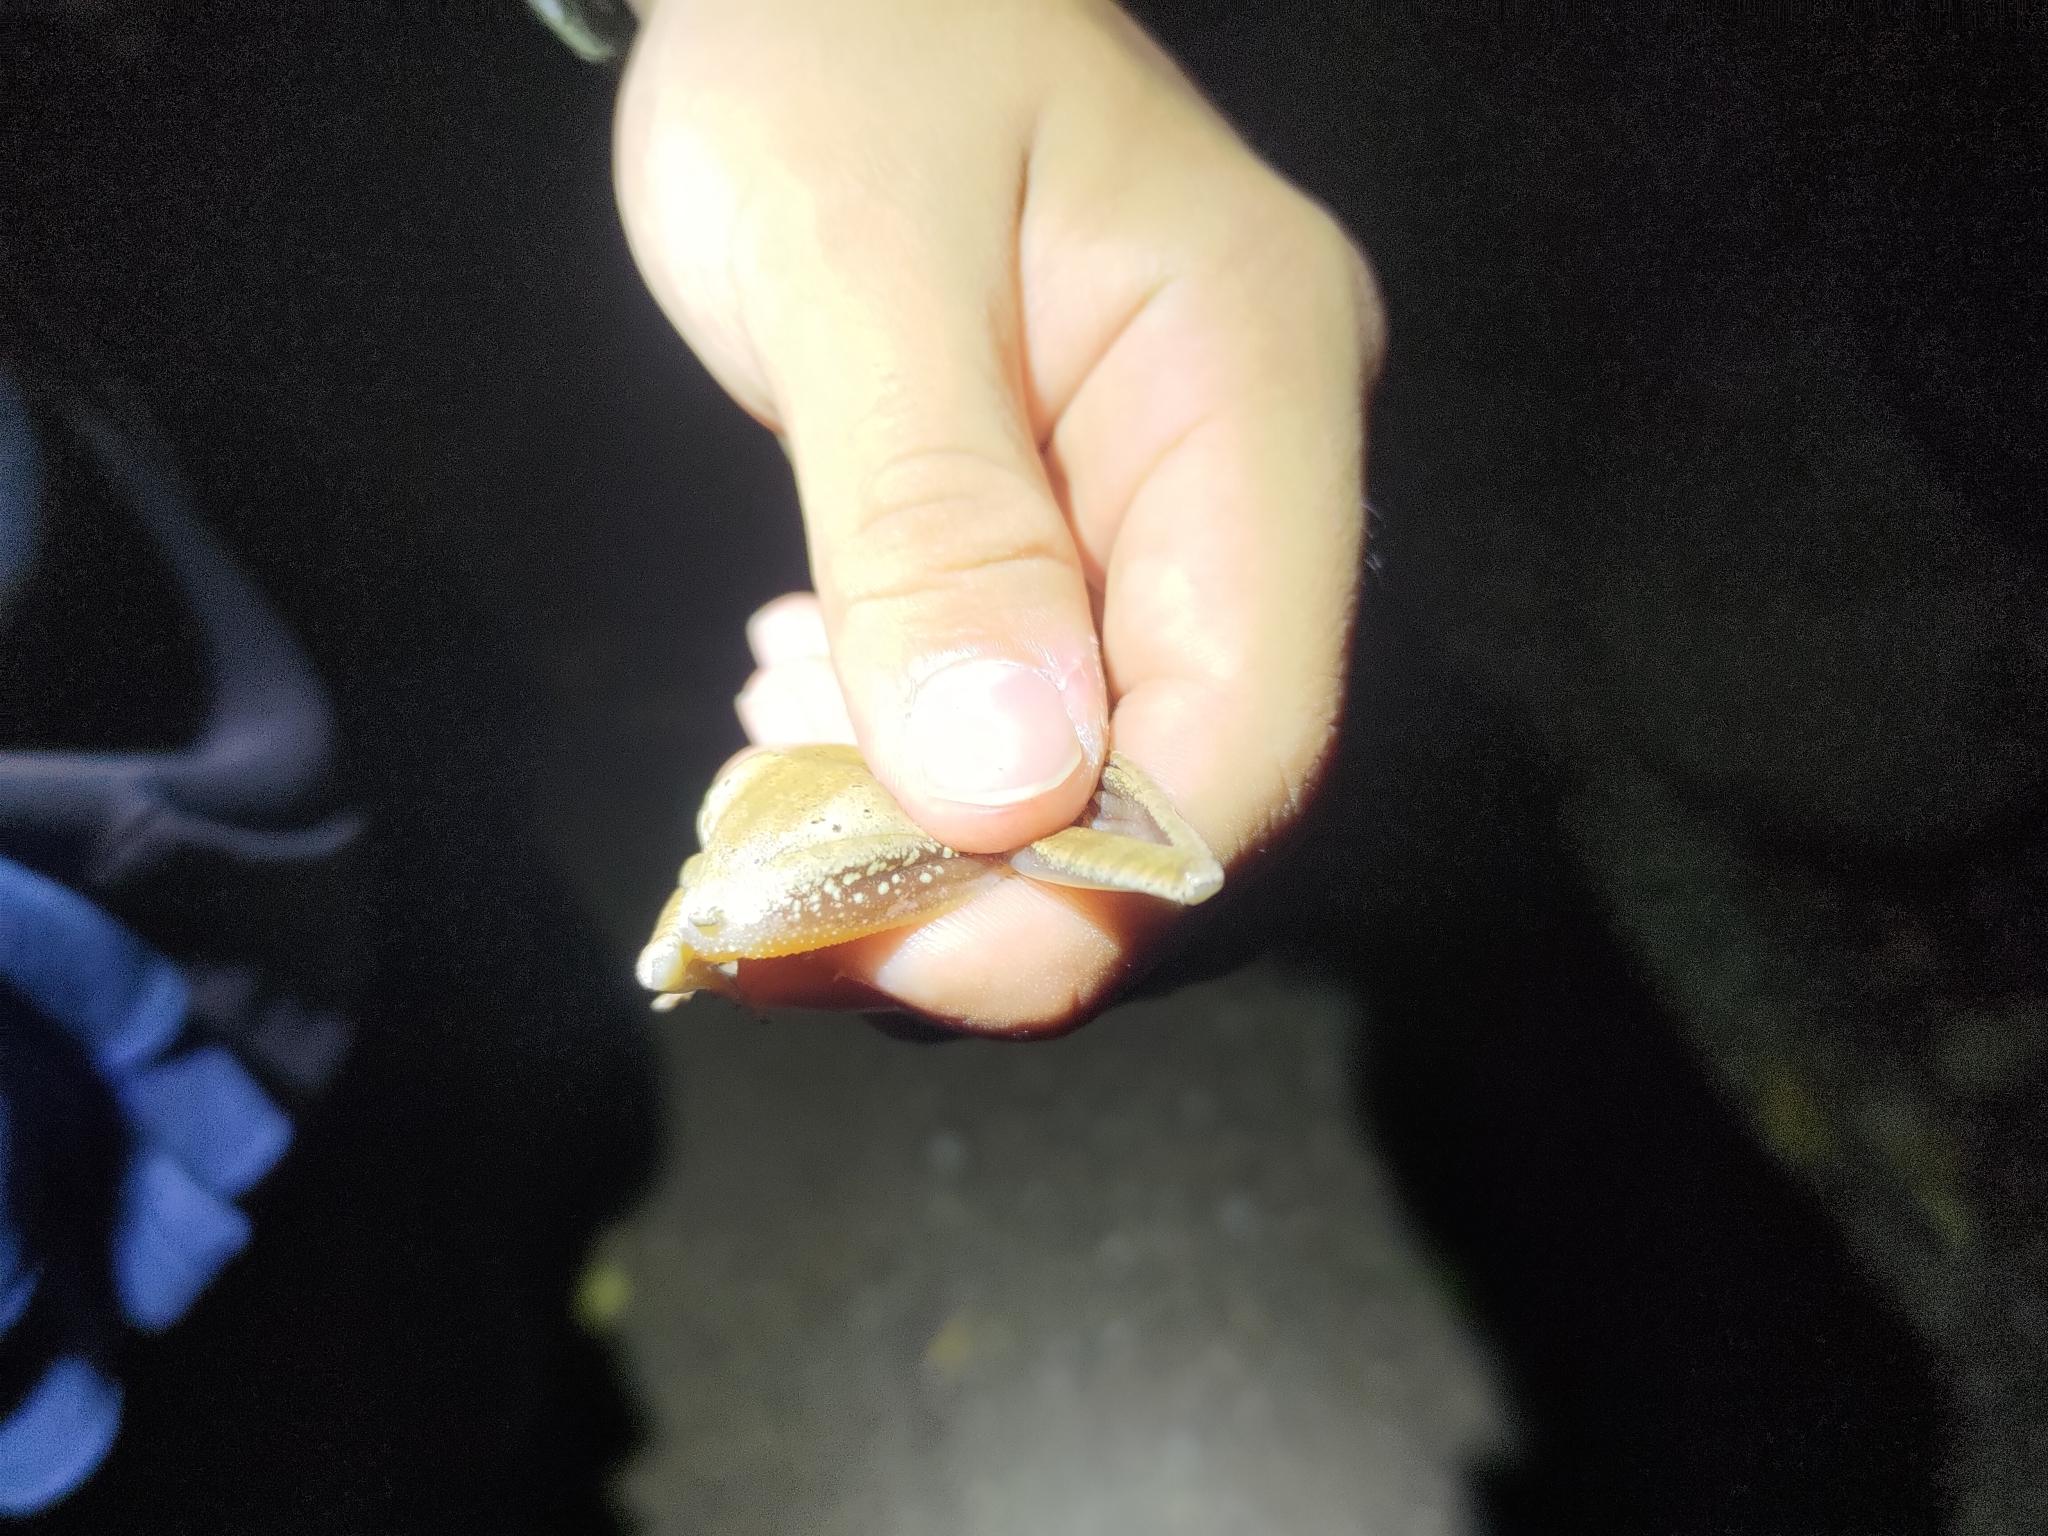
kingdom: Animalia
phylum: Chordata
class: Amphibia
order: Anura
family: Rhacophoridae
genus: Polypedates
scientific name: Polypedates megacephalus
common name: Hong kong whipping frog
